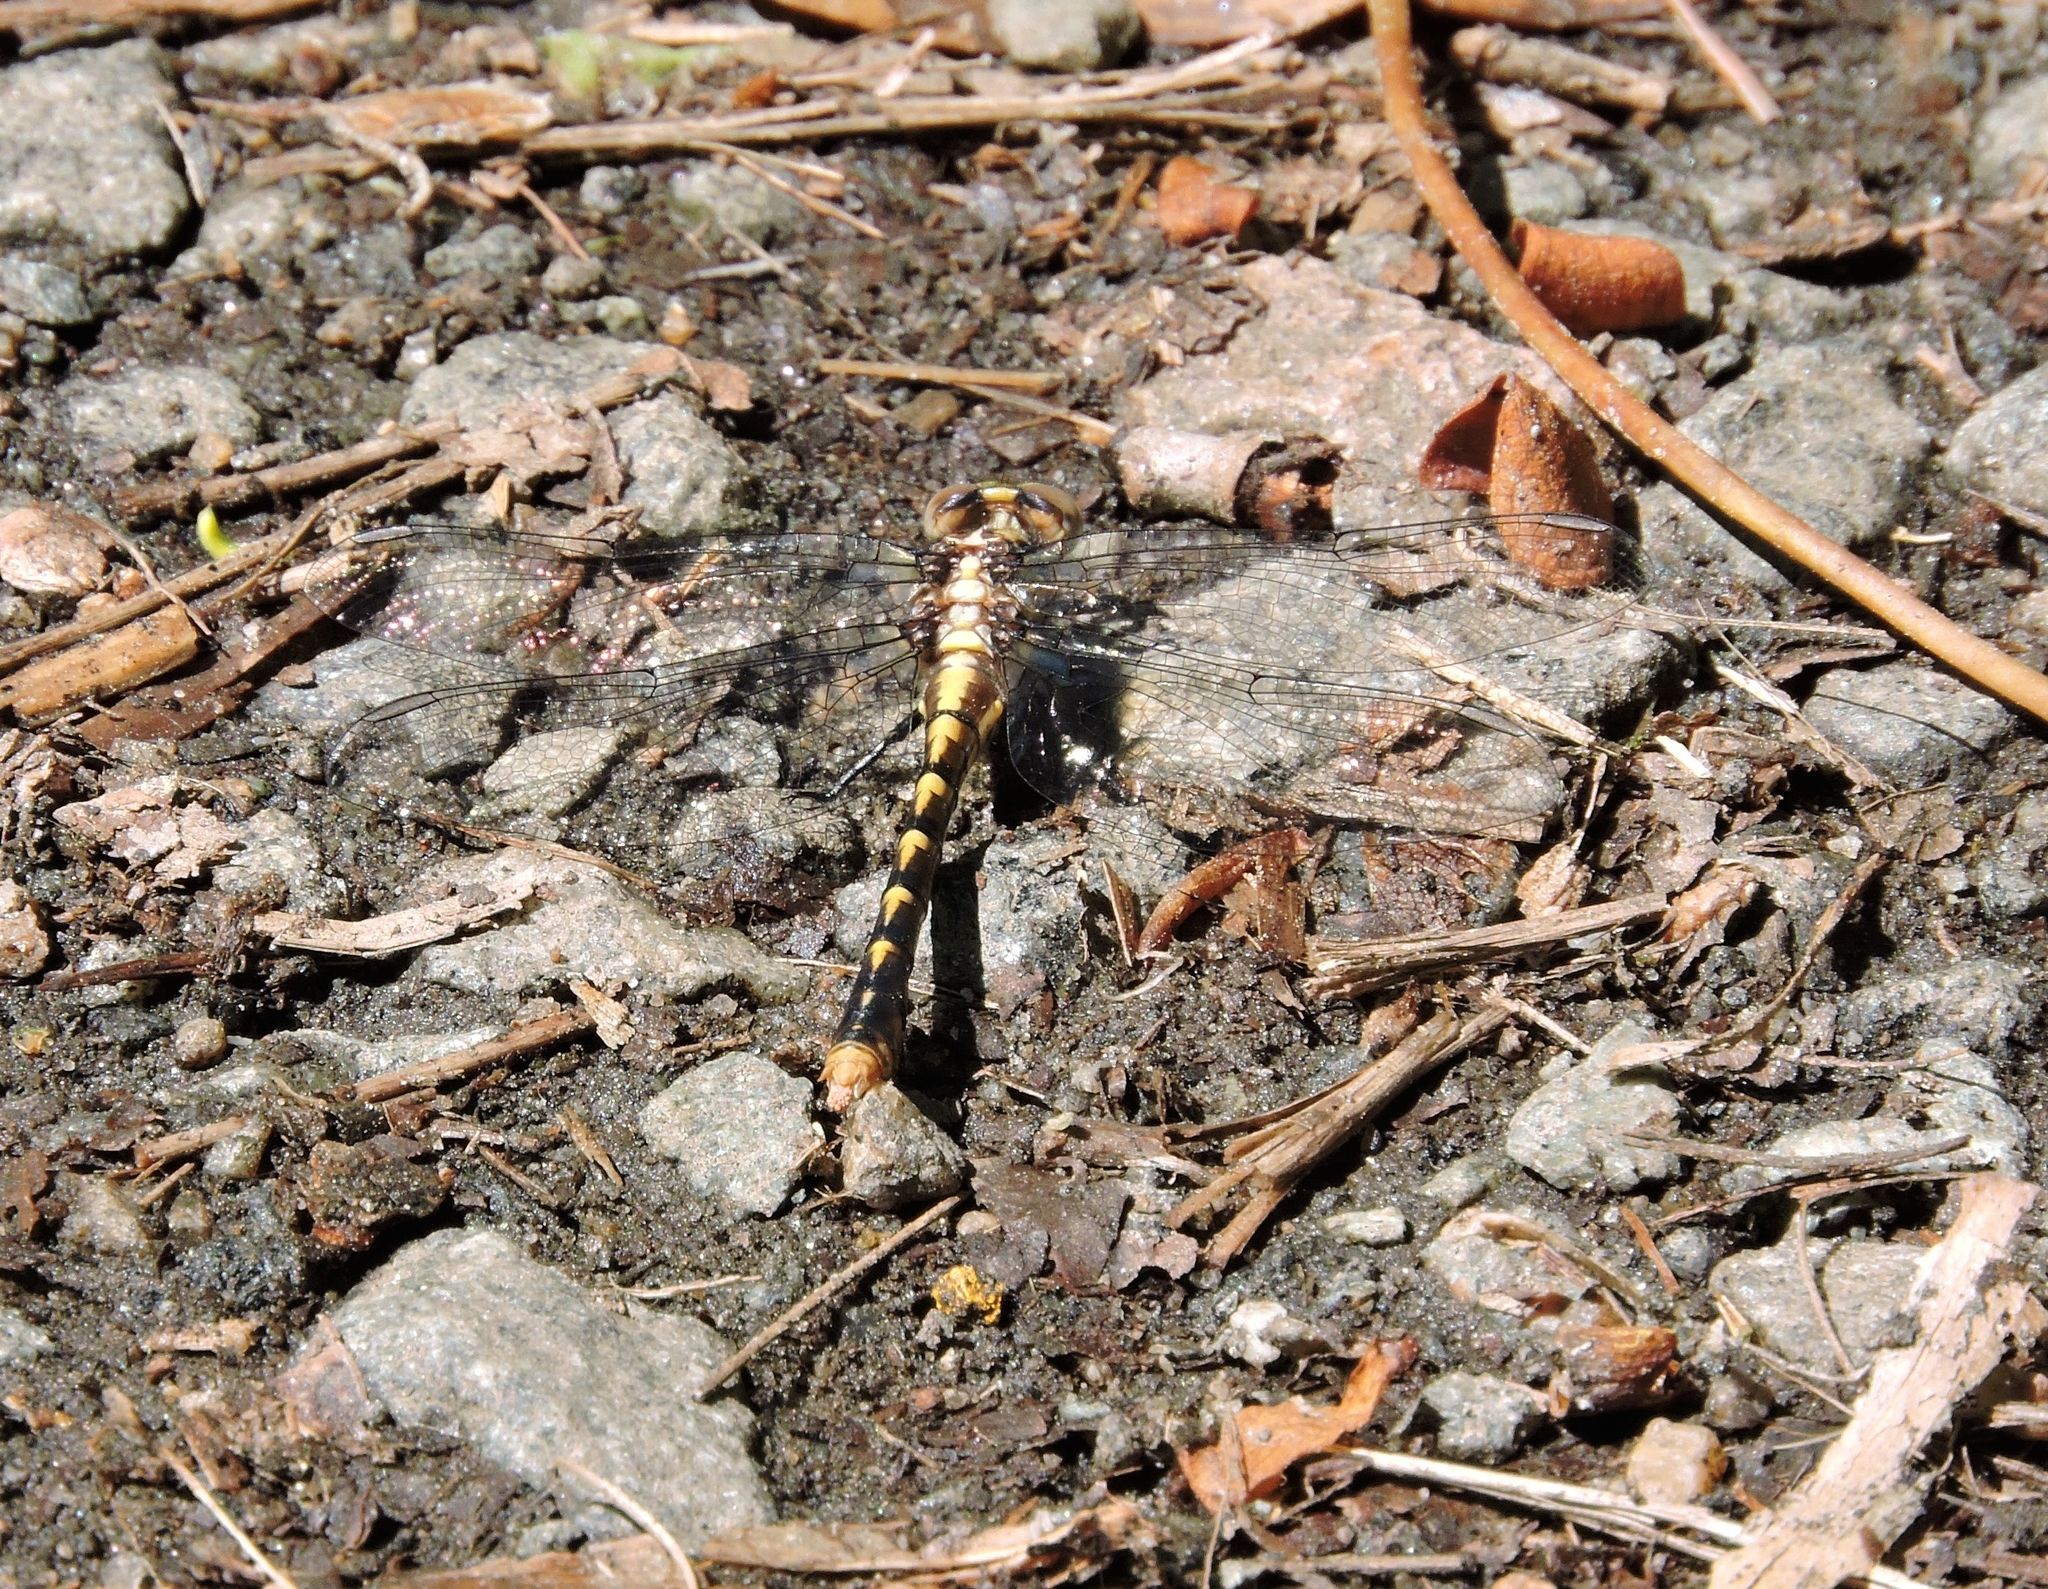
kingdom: Animalia
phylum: Arthropoda
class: Insecta
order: Odonata
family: Gomphidae
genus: Ophiogomphus
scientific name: Ophiogomphus susbehcha
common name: Saint croix snaketail
